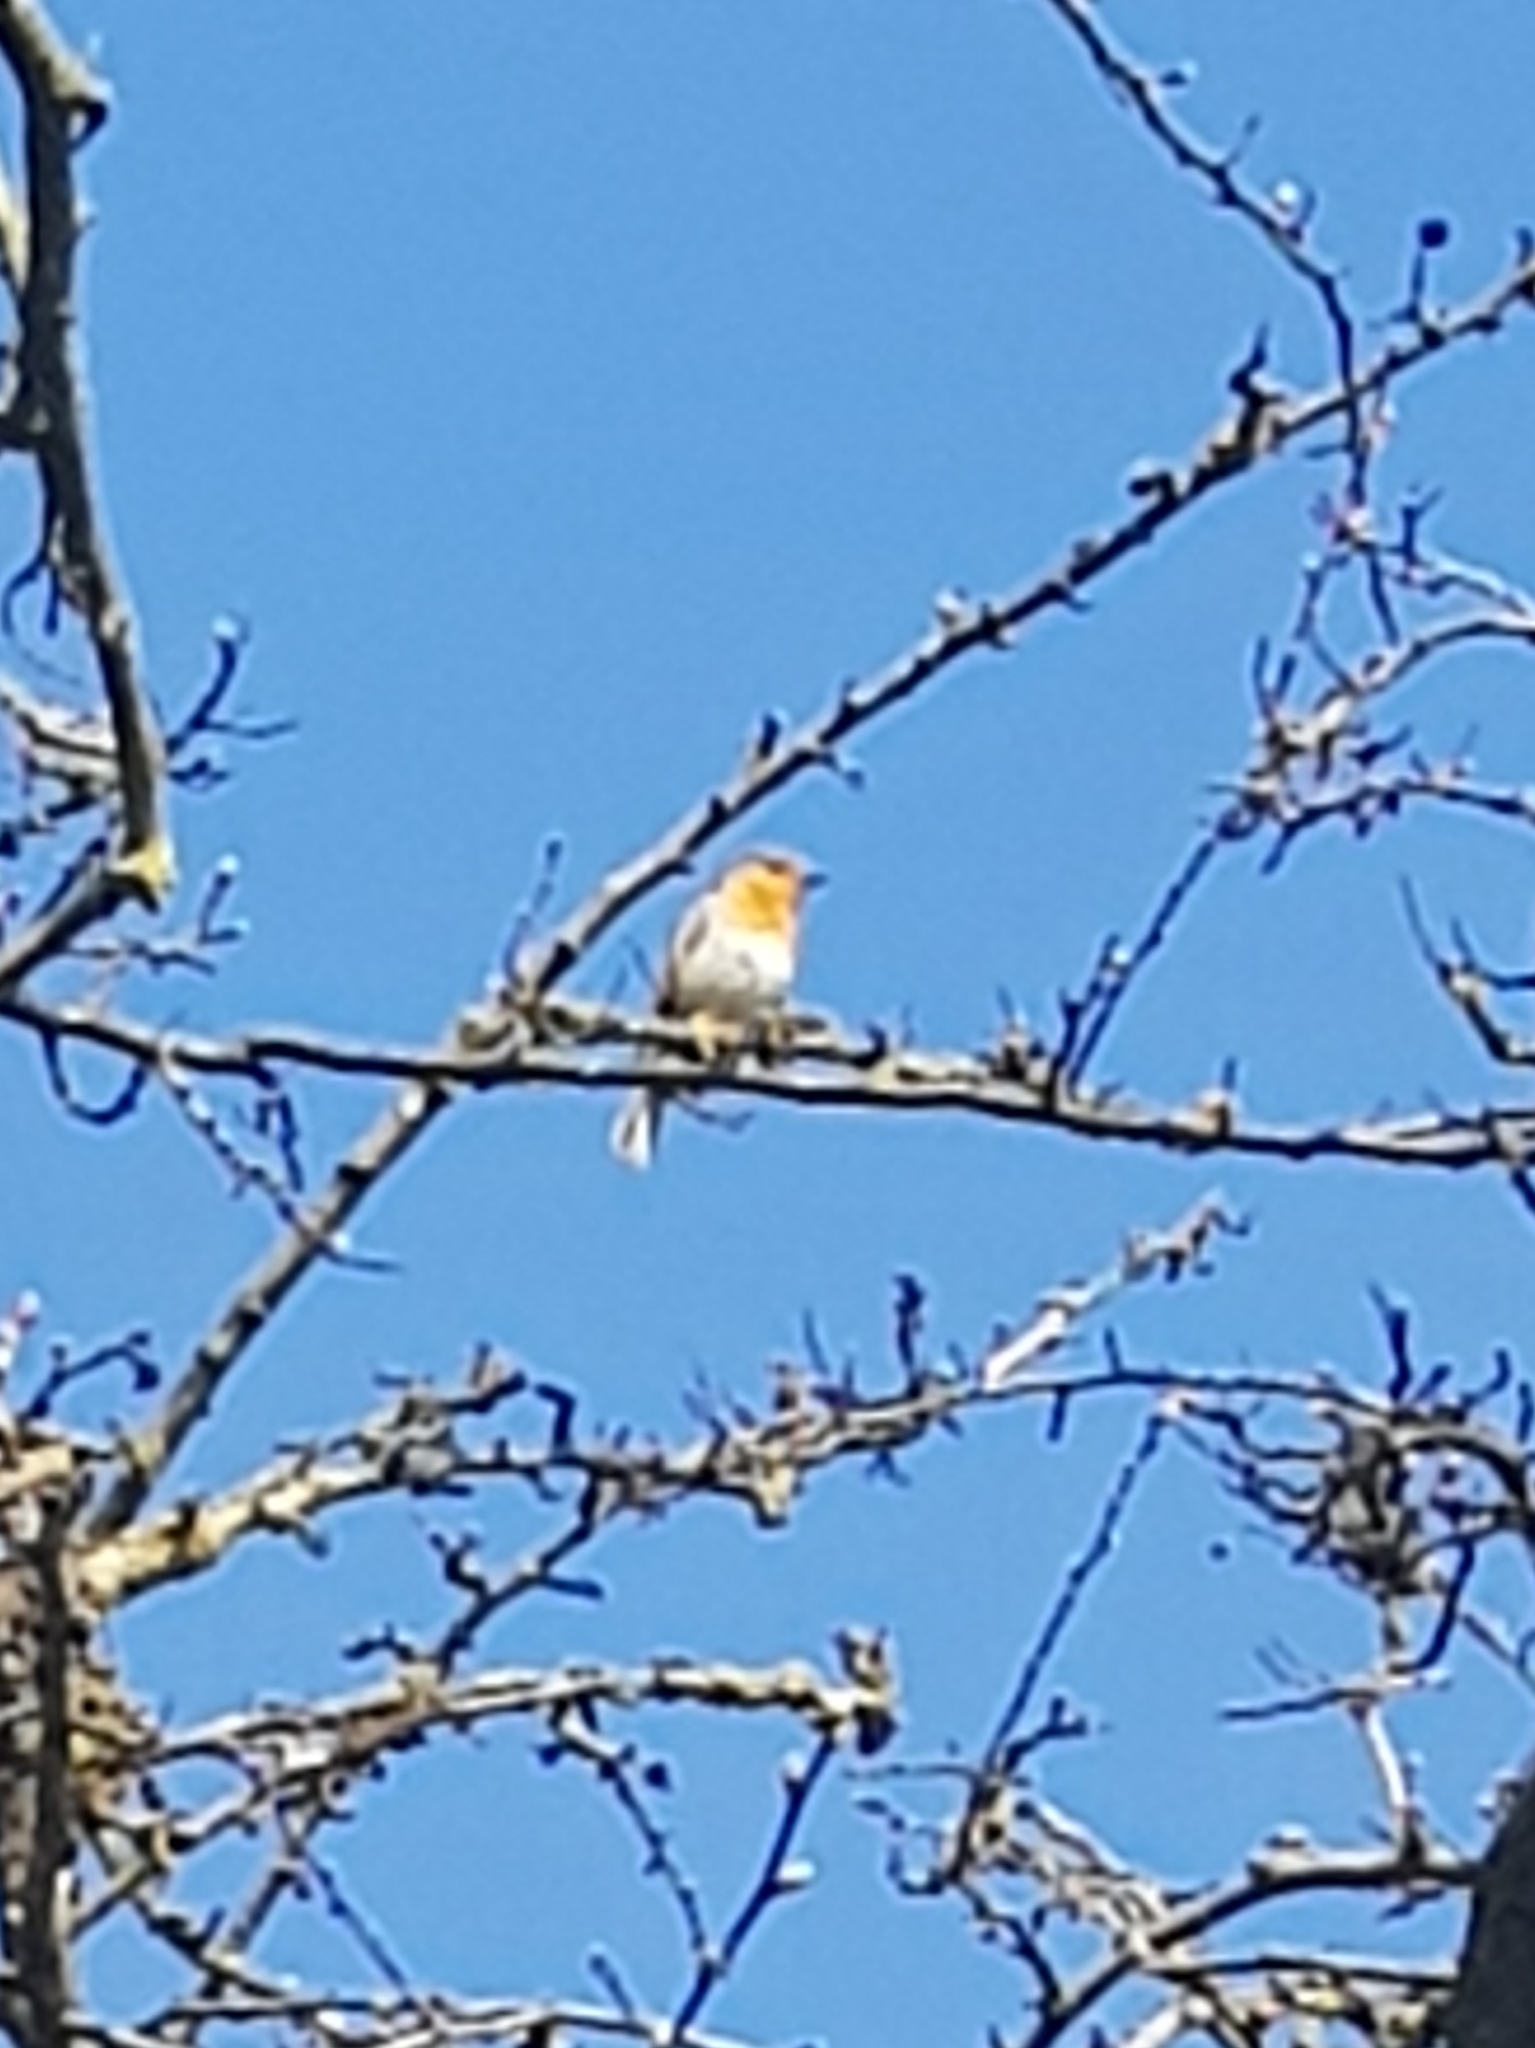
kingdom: Animalia
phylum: Chordata
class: Aves
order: Passeriformes
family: Muscicapidae
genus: Erithacus
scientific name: Erithacus rubecula
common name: European robin
